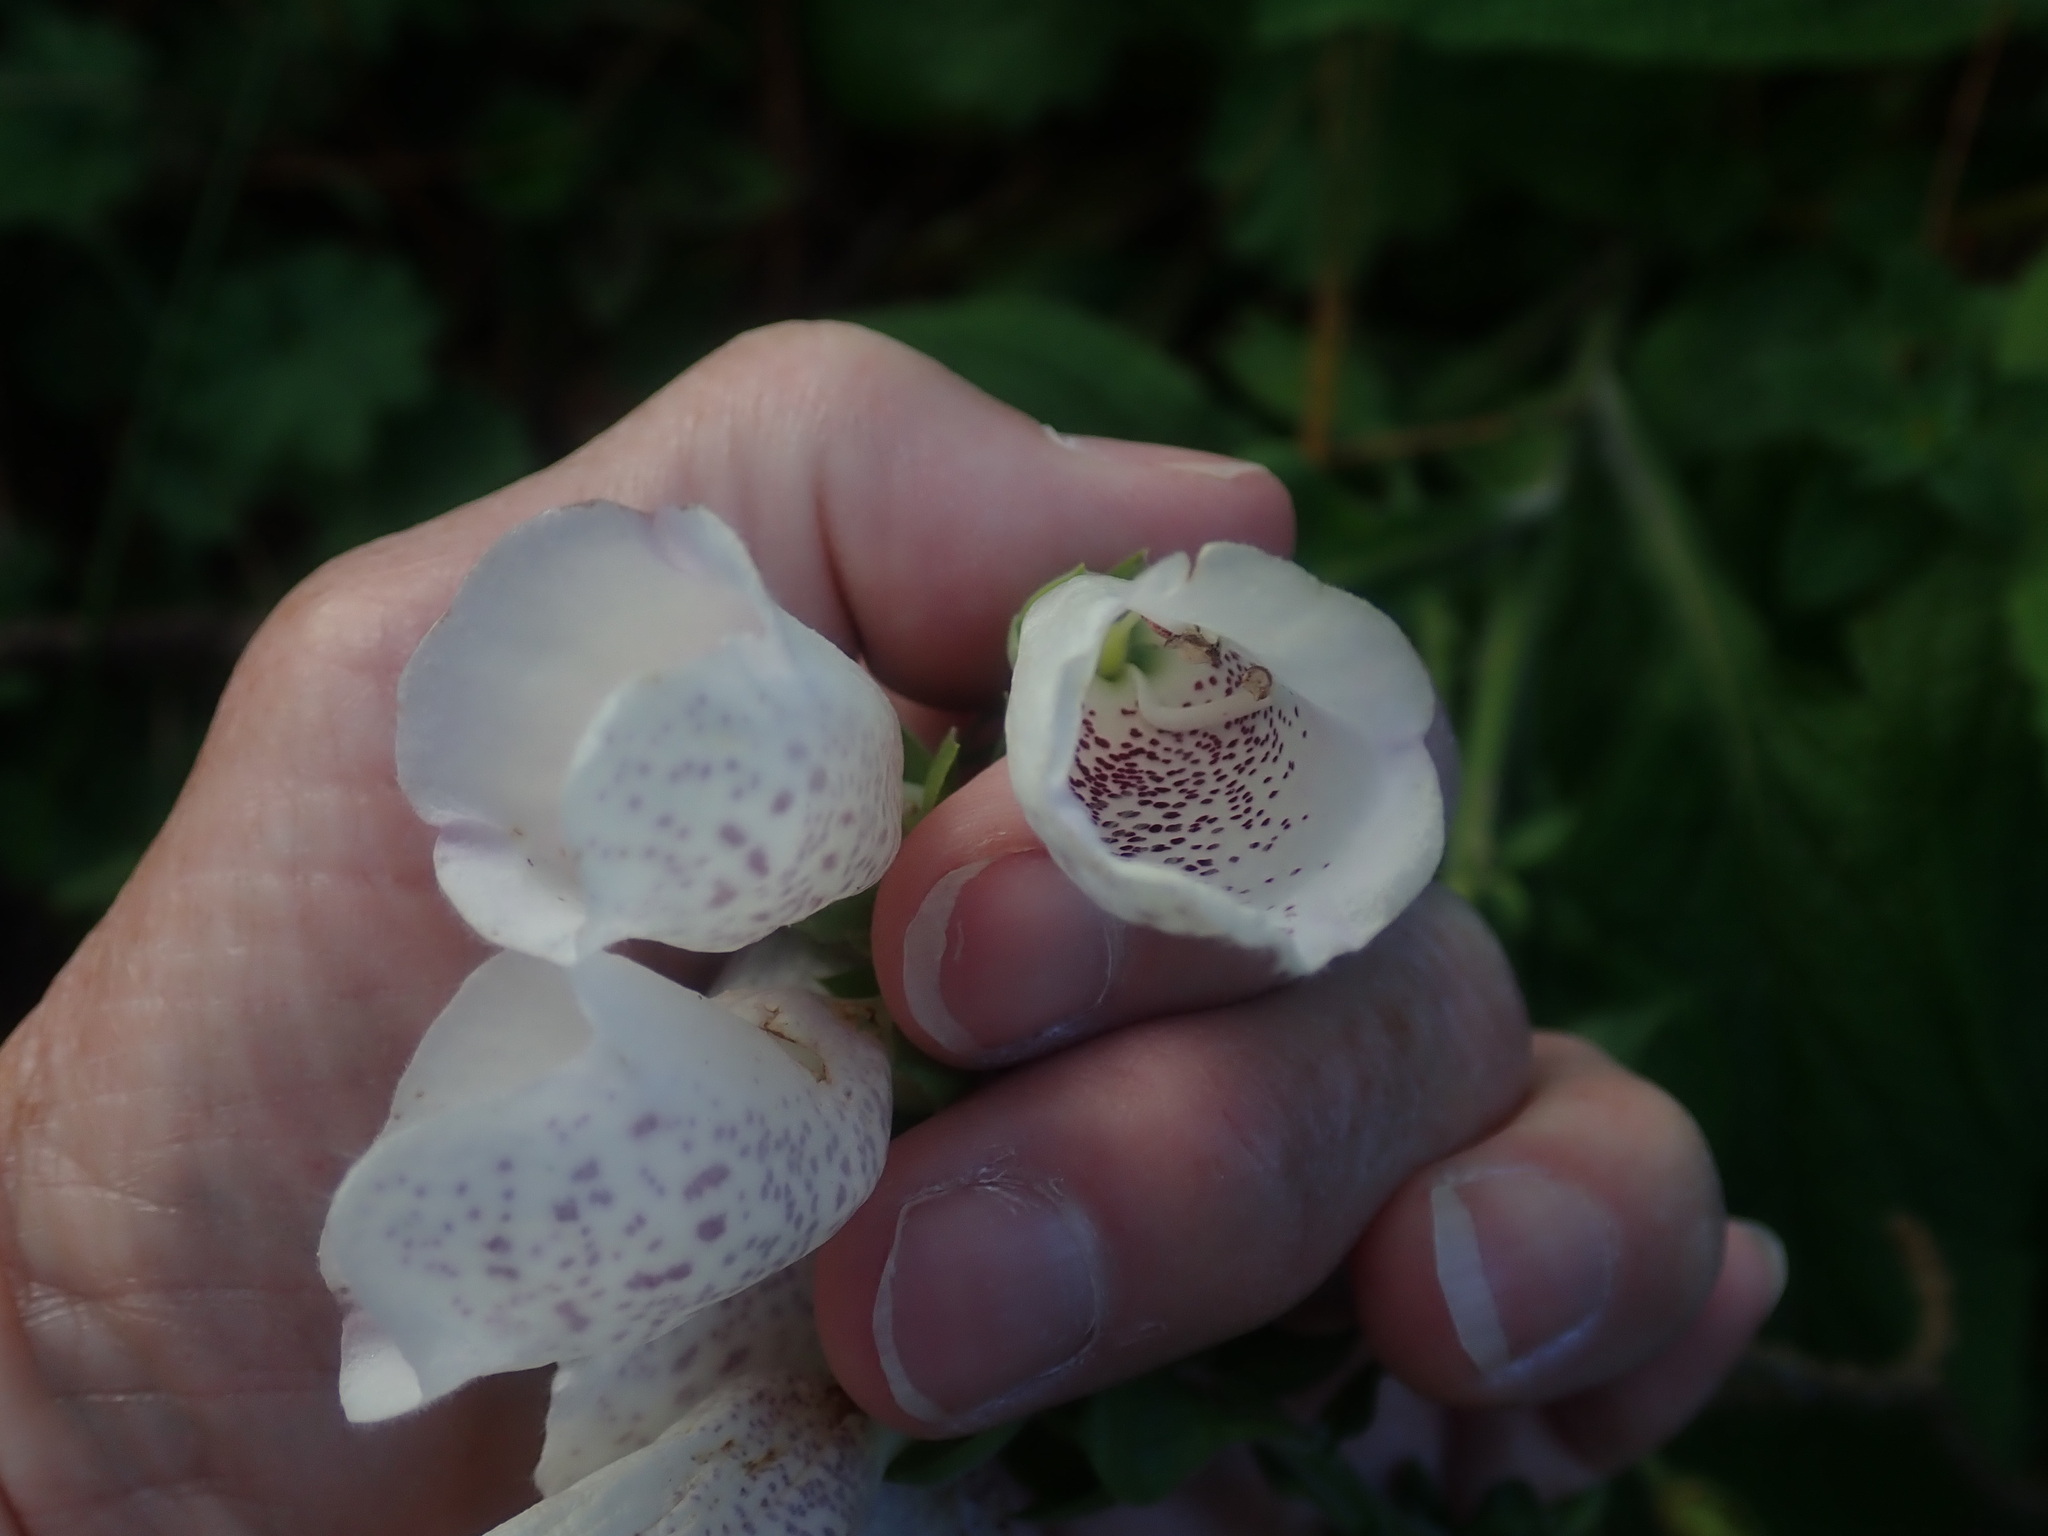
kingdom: Plantae
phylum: Tracheophyta
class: Magnoliopsida
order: Lamiales
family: Plantaginaceae
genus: Digitalis
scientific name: Digitalis purpurea
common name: Foxglove
